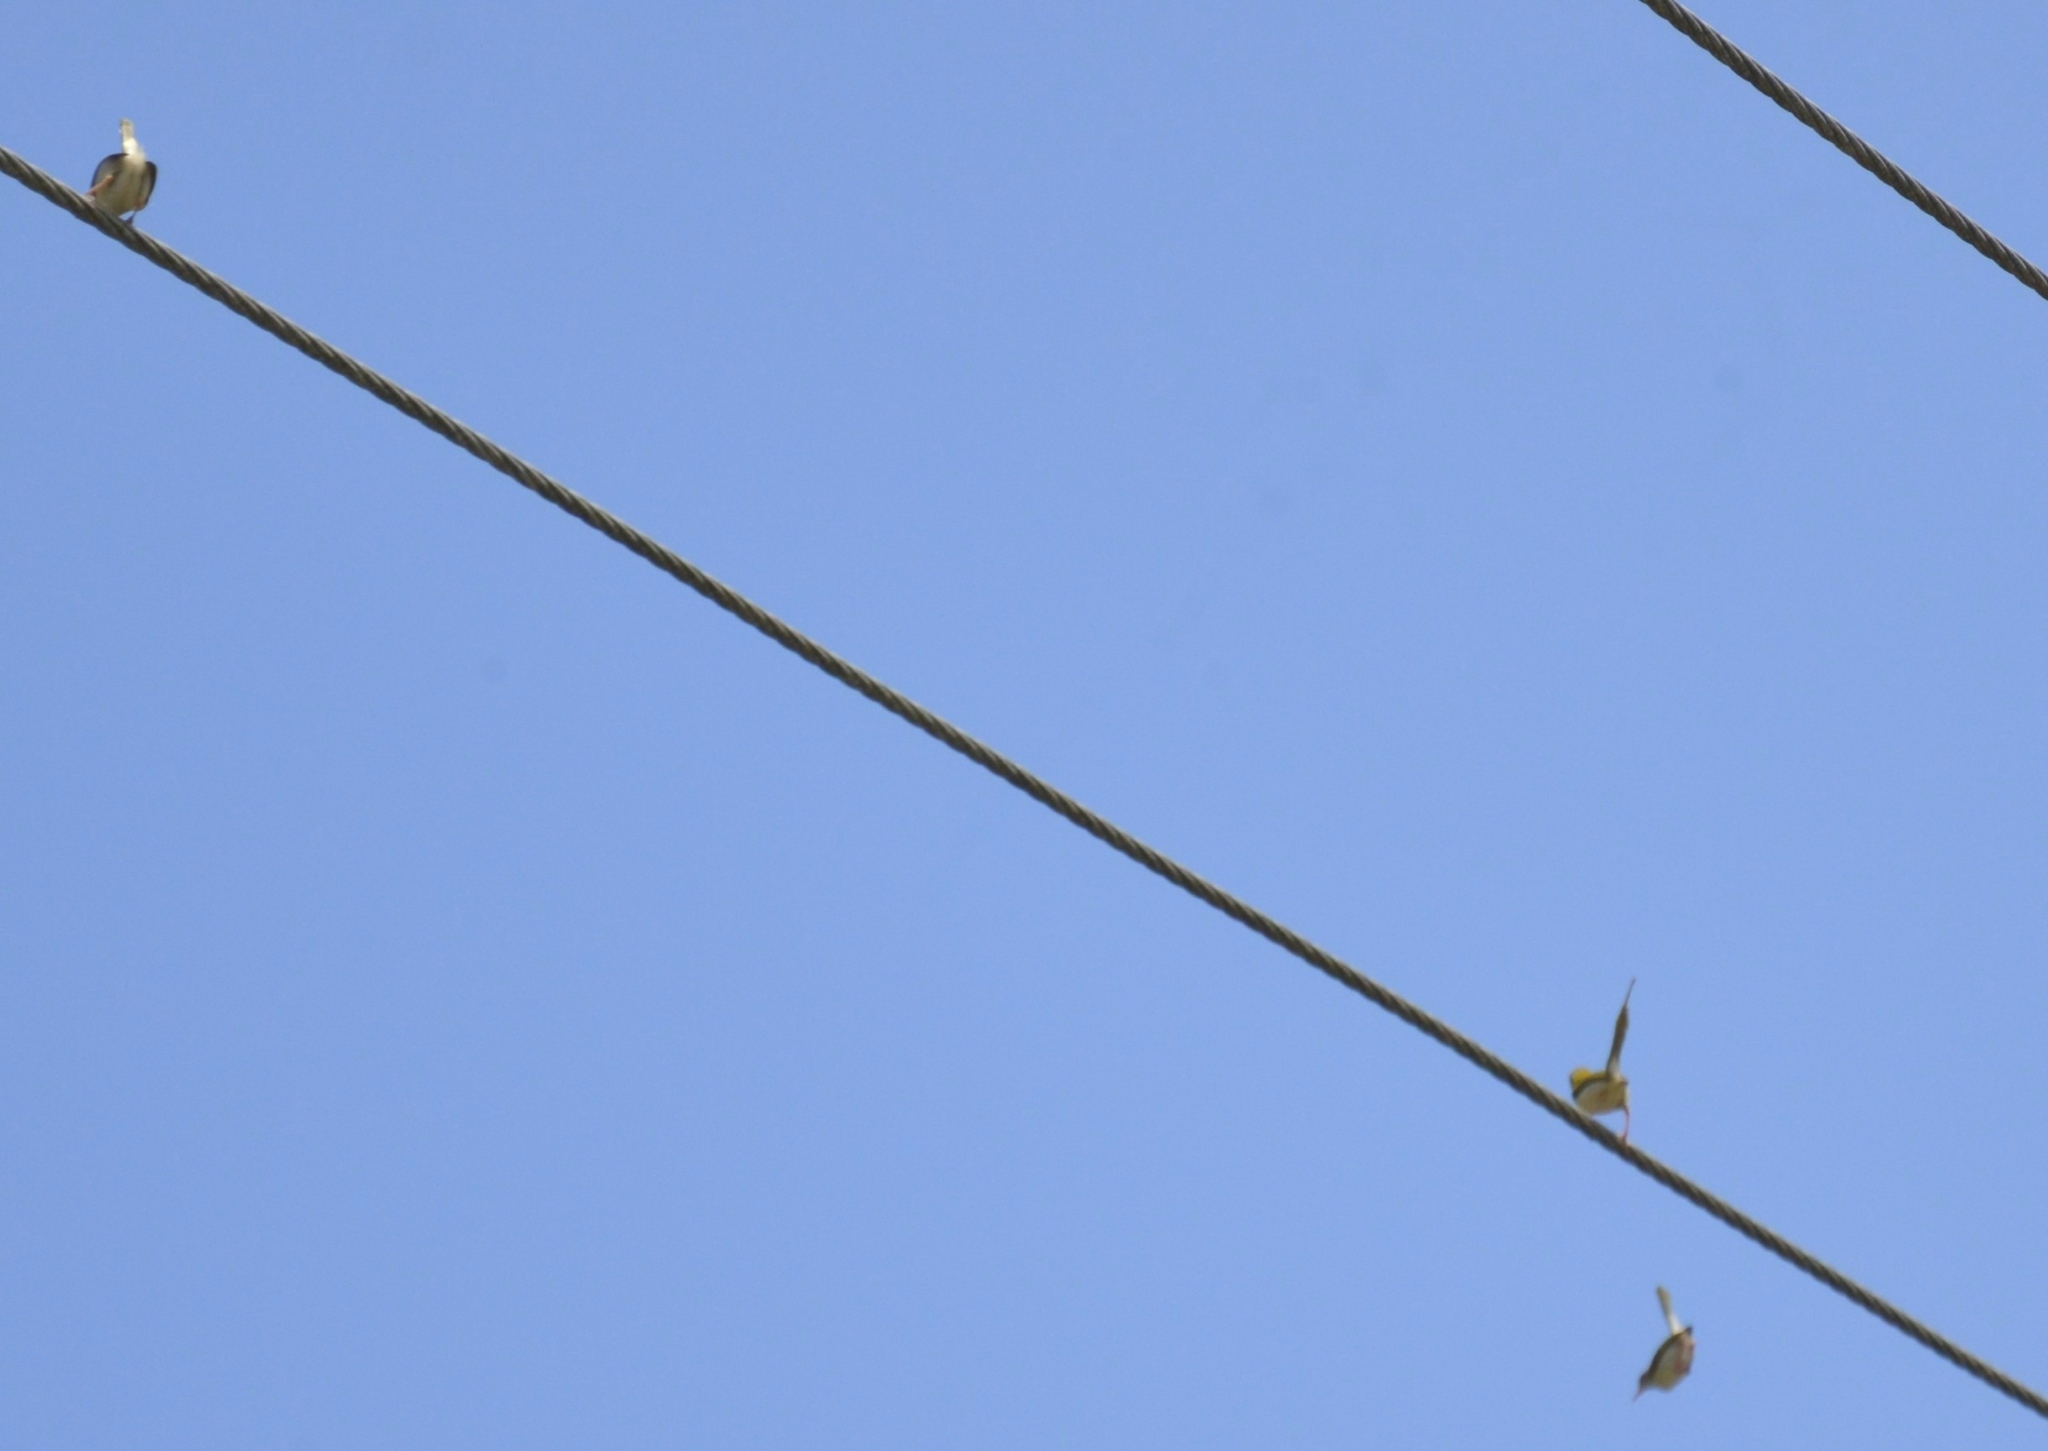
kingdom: Animalia
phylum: Chordata
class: Aves
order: Passeriformes
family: Cisticolidae
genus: Orthotomus
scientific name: Orthotomus sutorius
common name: Common tailorbird
